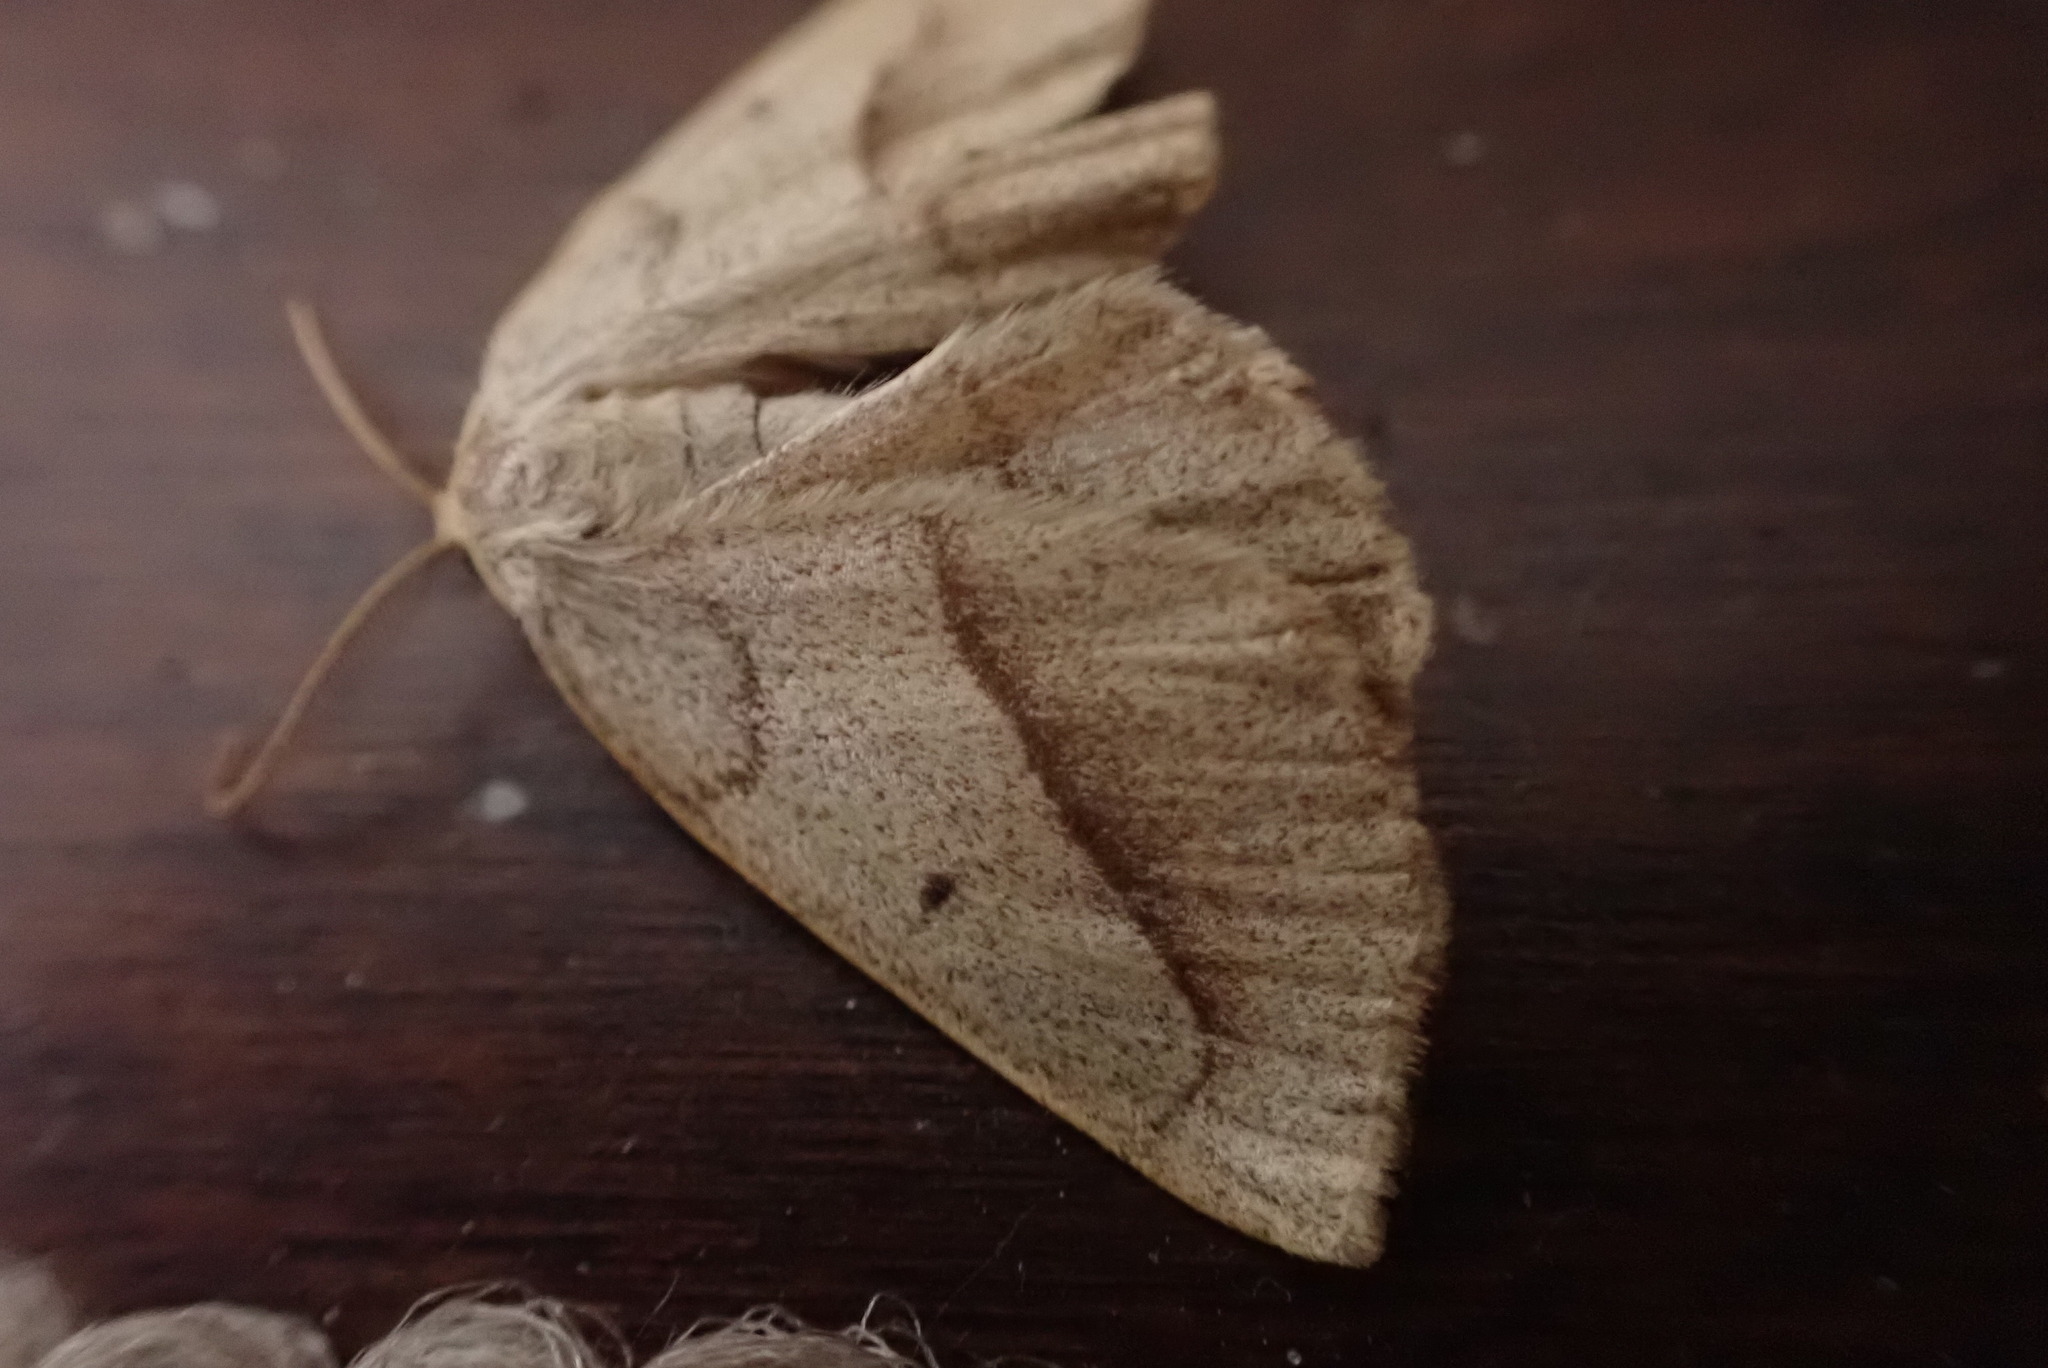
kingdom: Animalia
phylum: Arthropoda
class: Insecta
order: Lepidoptera
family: Geometridae
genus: Euchlaena
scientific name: Euchlaena irraria
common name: Least-marked euchlaena
